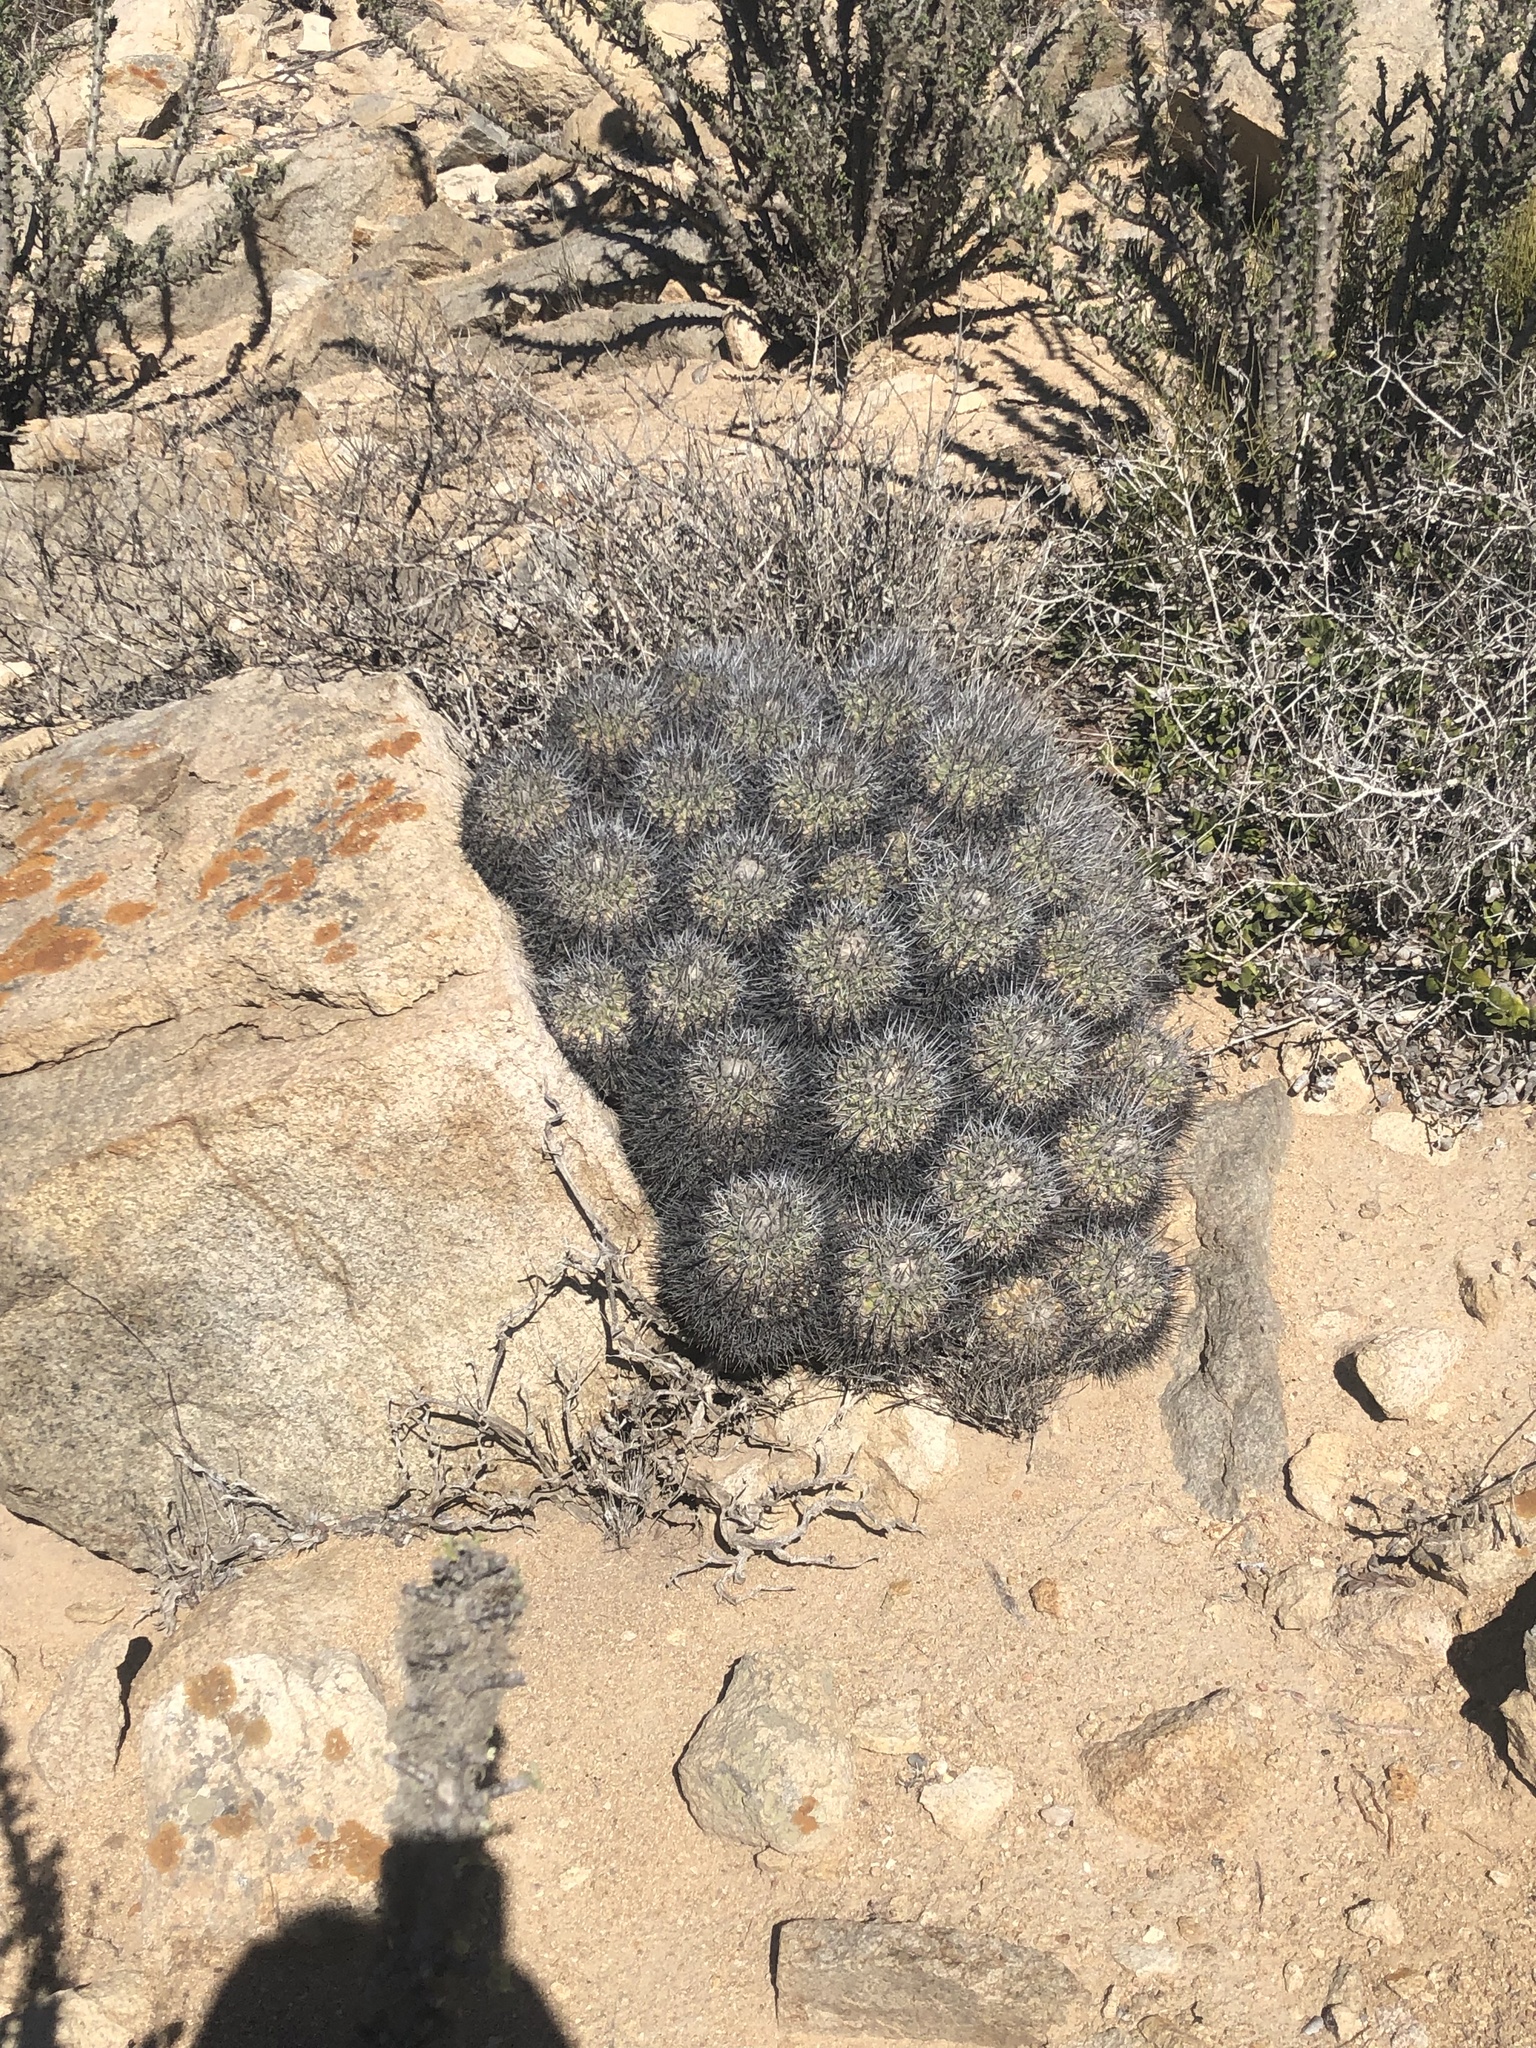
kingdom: Plantae
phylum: Tracheophyta
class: Magnoliopsida
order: Caryophyllales
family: Cactaceae
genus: Copiapoa
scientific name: Copiapoa coquimbana
